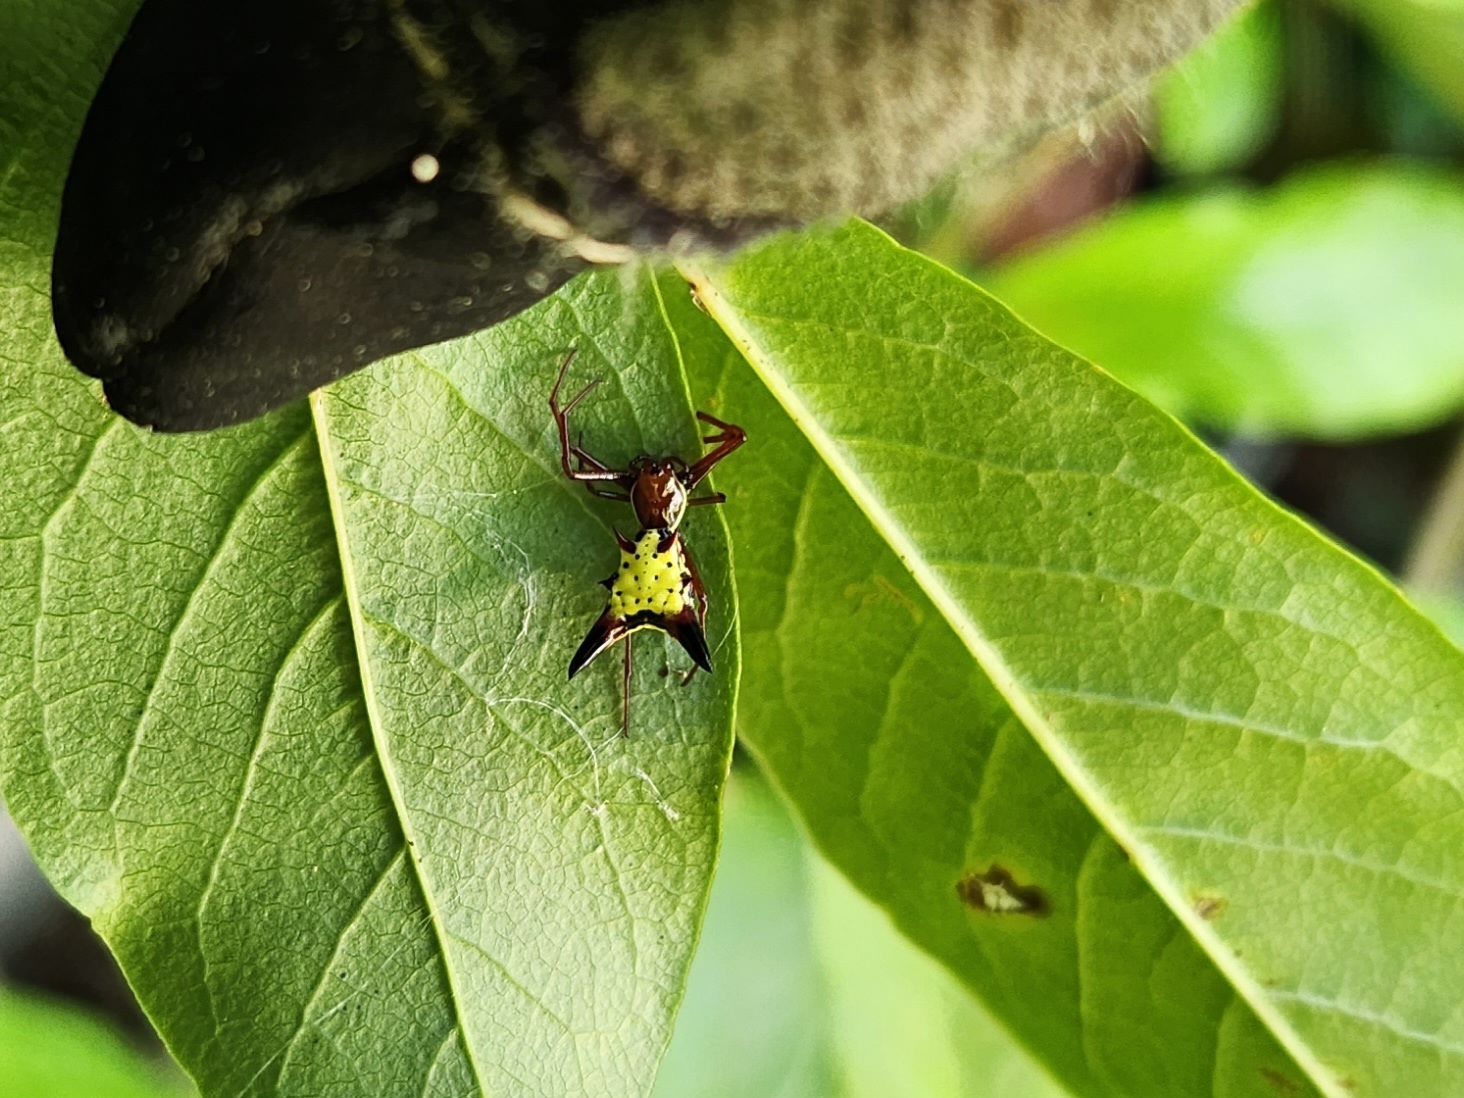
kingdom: Animalia
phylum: Arthropoda
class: Arachnida
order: Araneae
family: Araneidae
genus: Micrathena
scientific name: Micrathena sagittata
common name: Orb weavers
